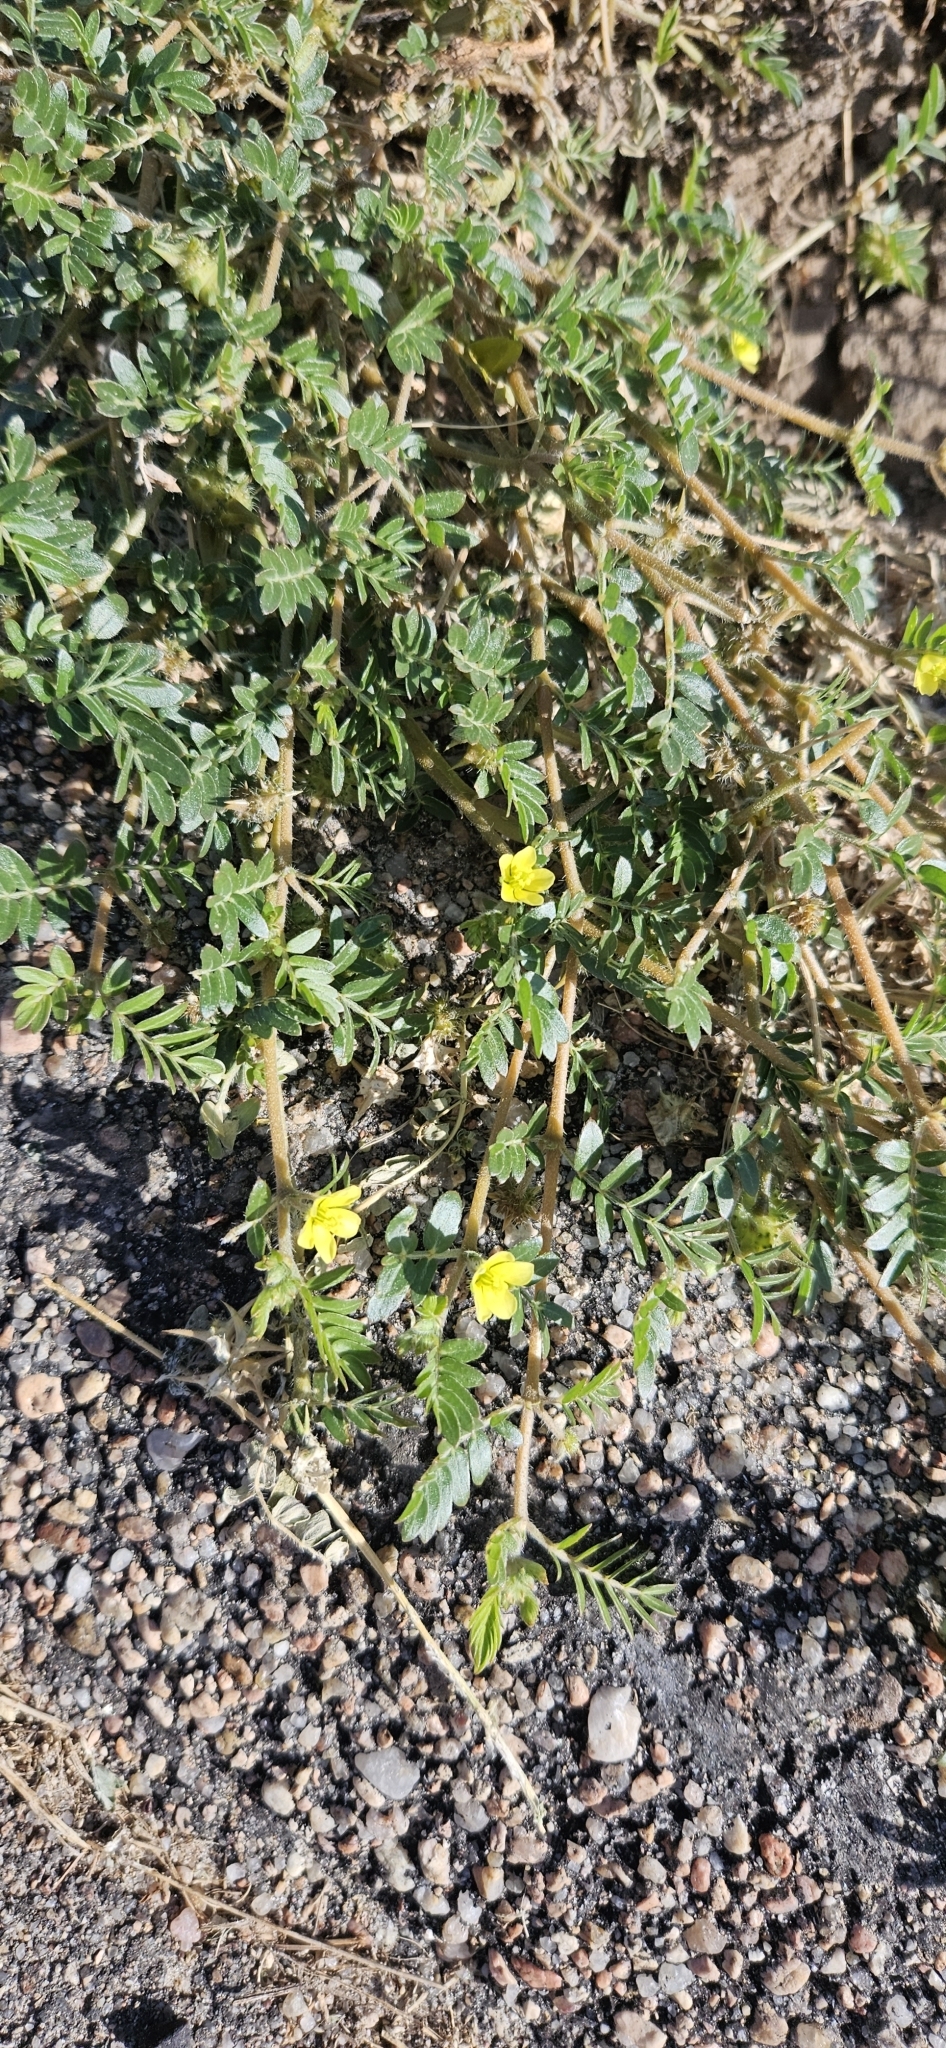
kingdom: Plantae
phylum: Tracheophyta
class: Magnoliopsida
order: Zygophyllales
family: Zygophyllaceae
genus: Tribulus
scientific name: Tribulus terrestris
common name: Puncturevine
